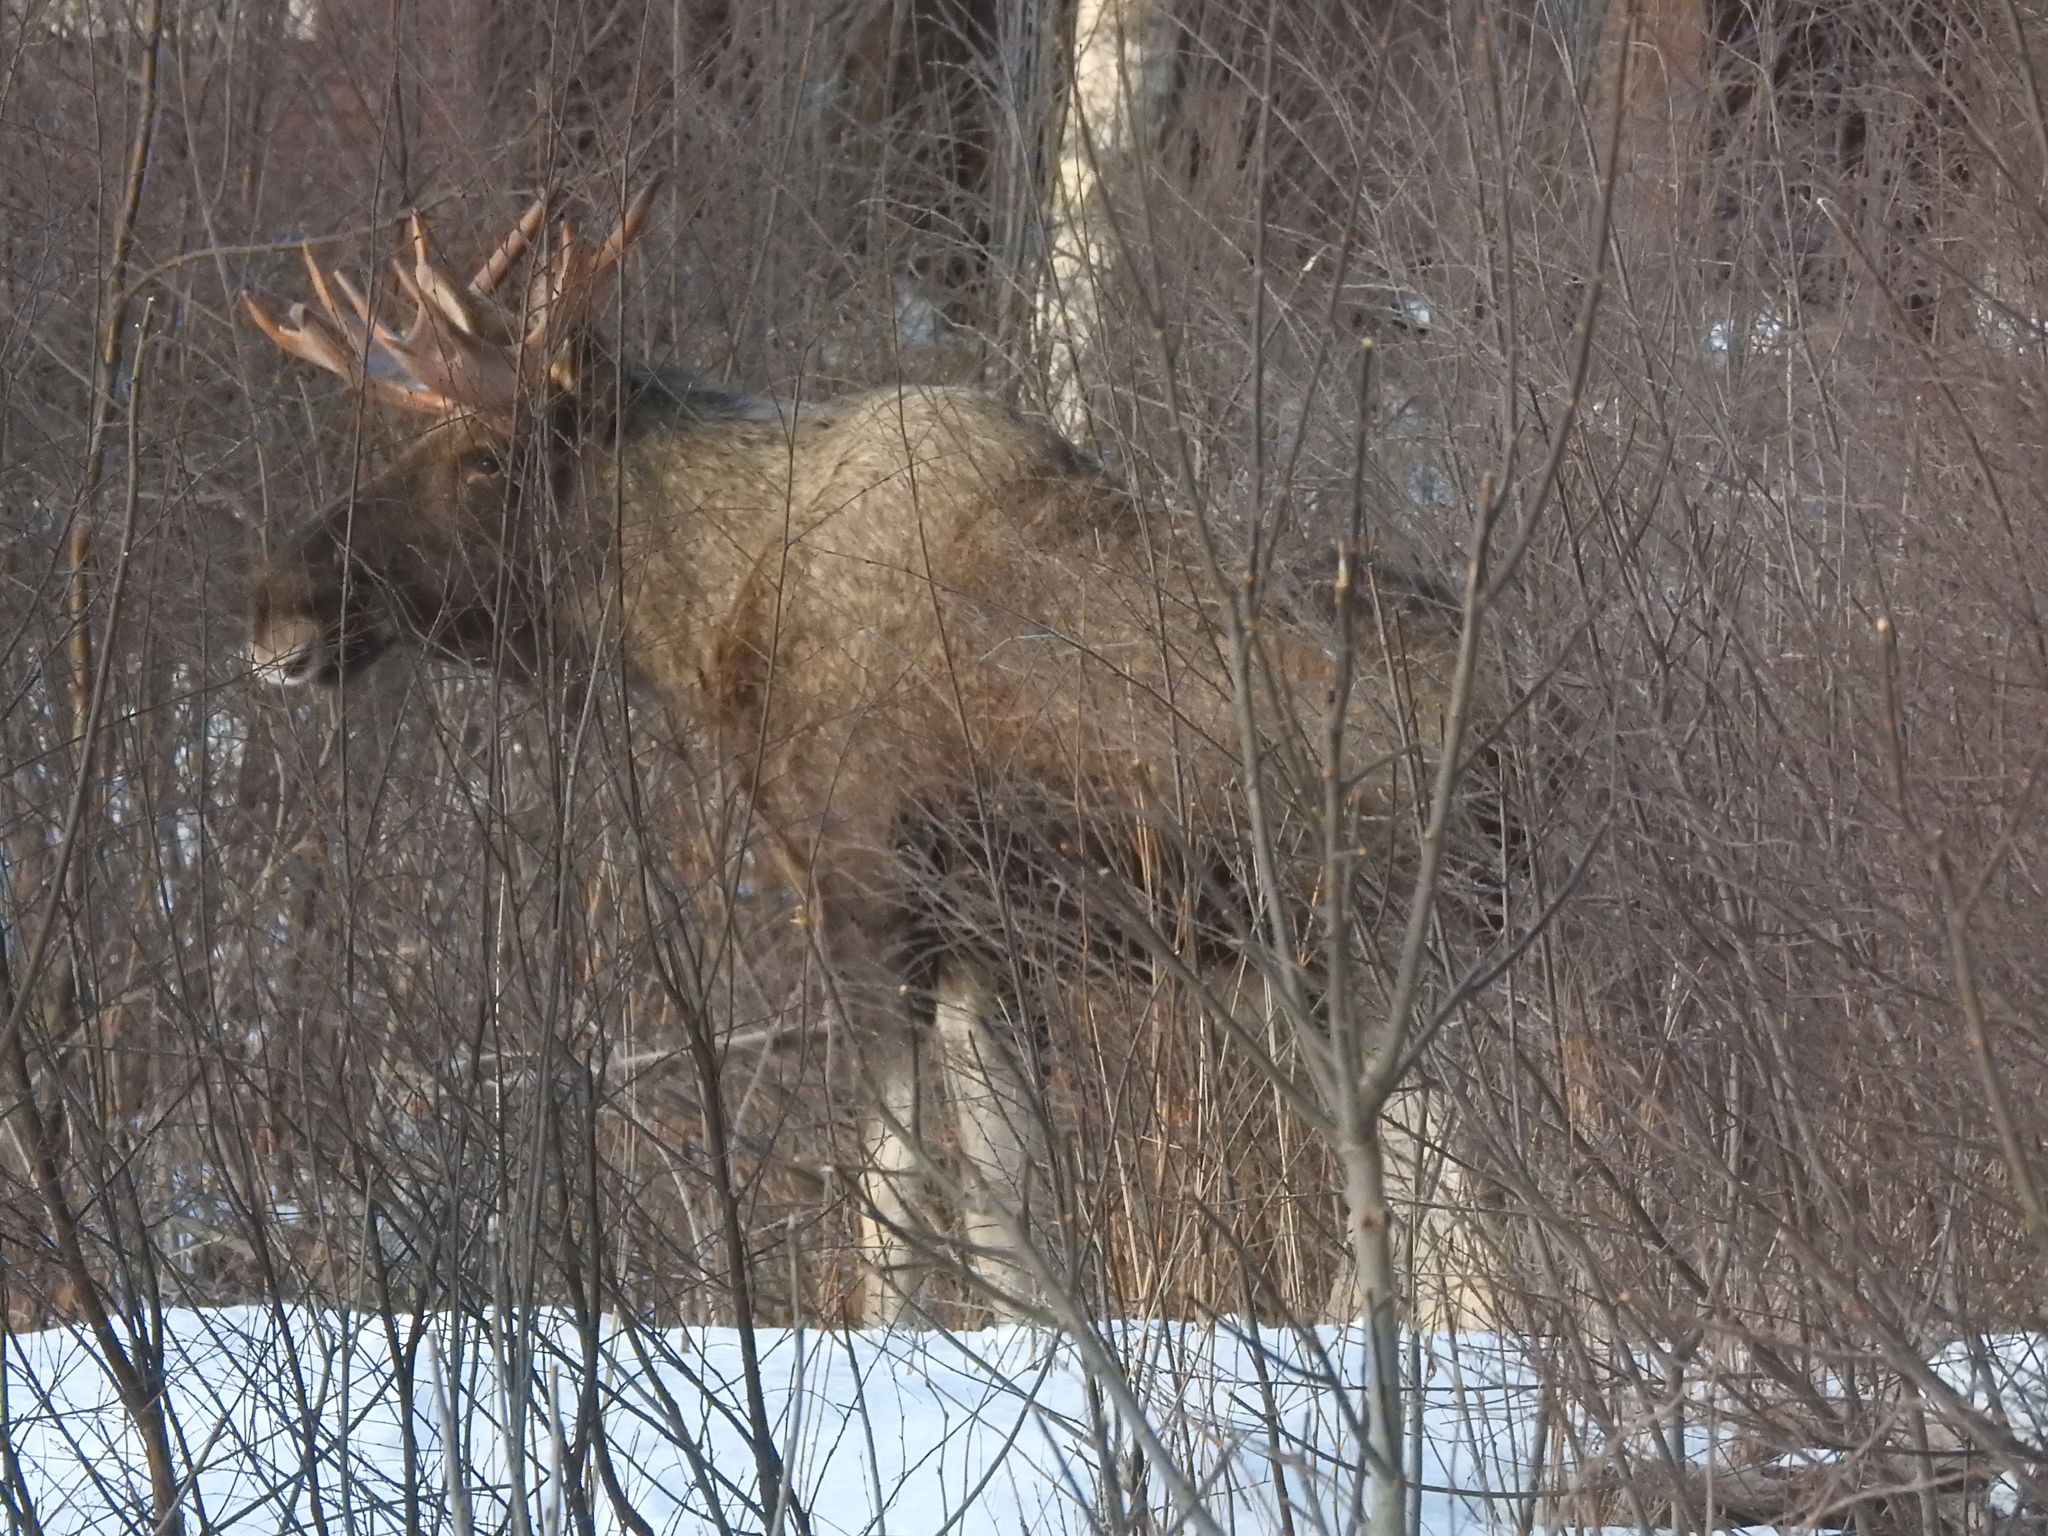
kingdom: Animalia
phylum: Chordata
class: Mammalia
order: Artiodactyla
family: Cervidae
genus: Alces
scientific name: Alces alces
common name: Moose
